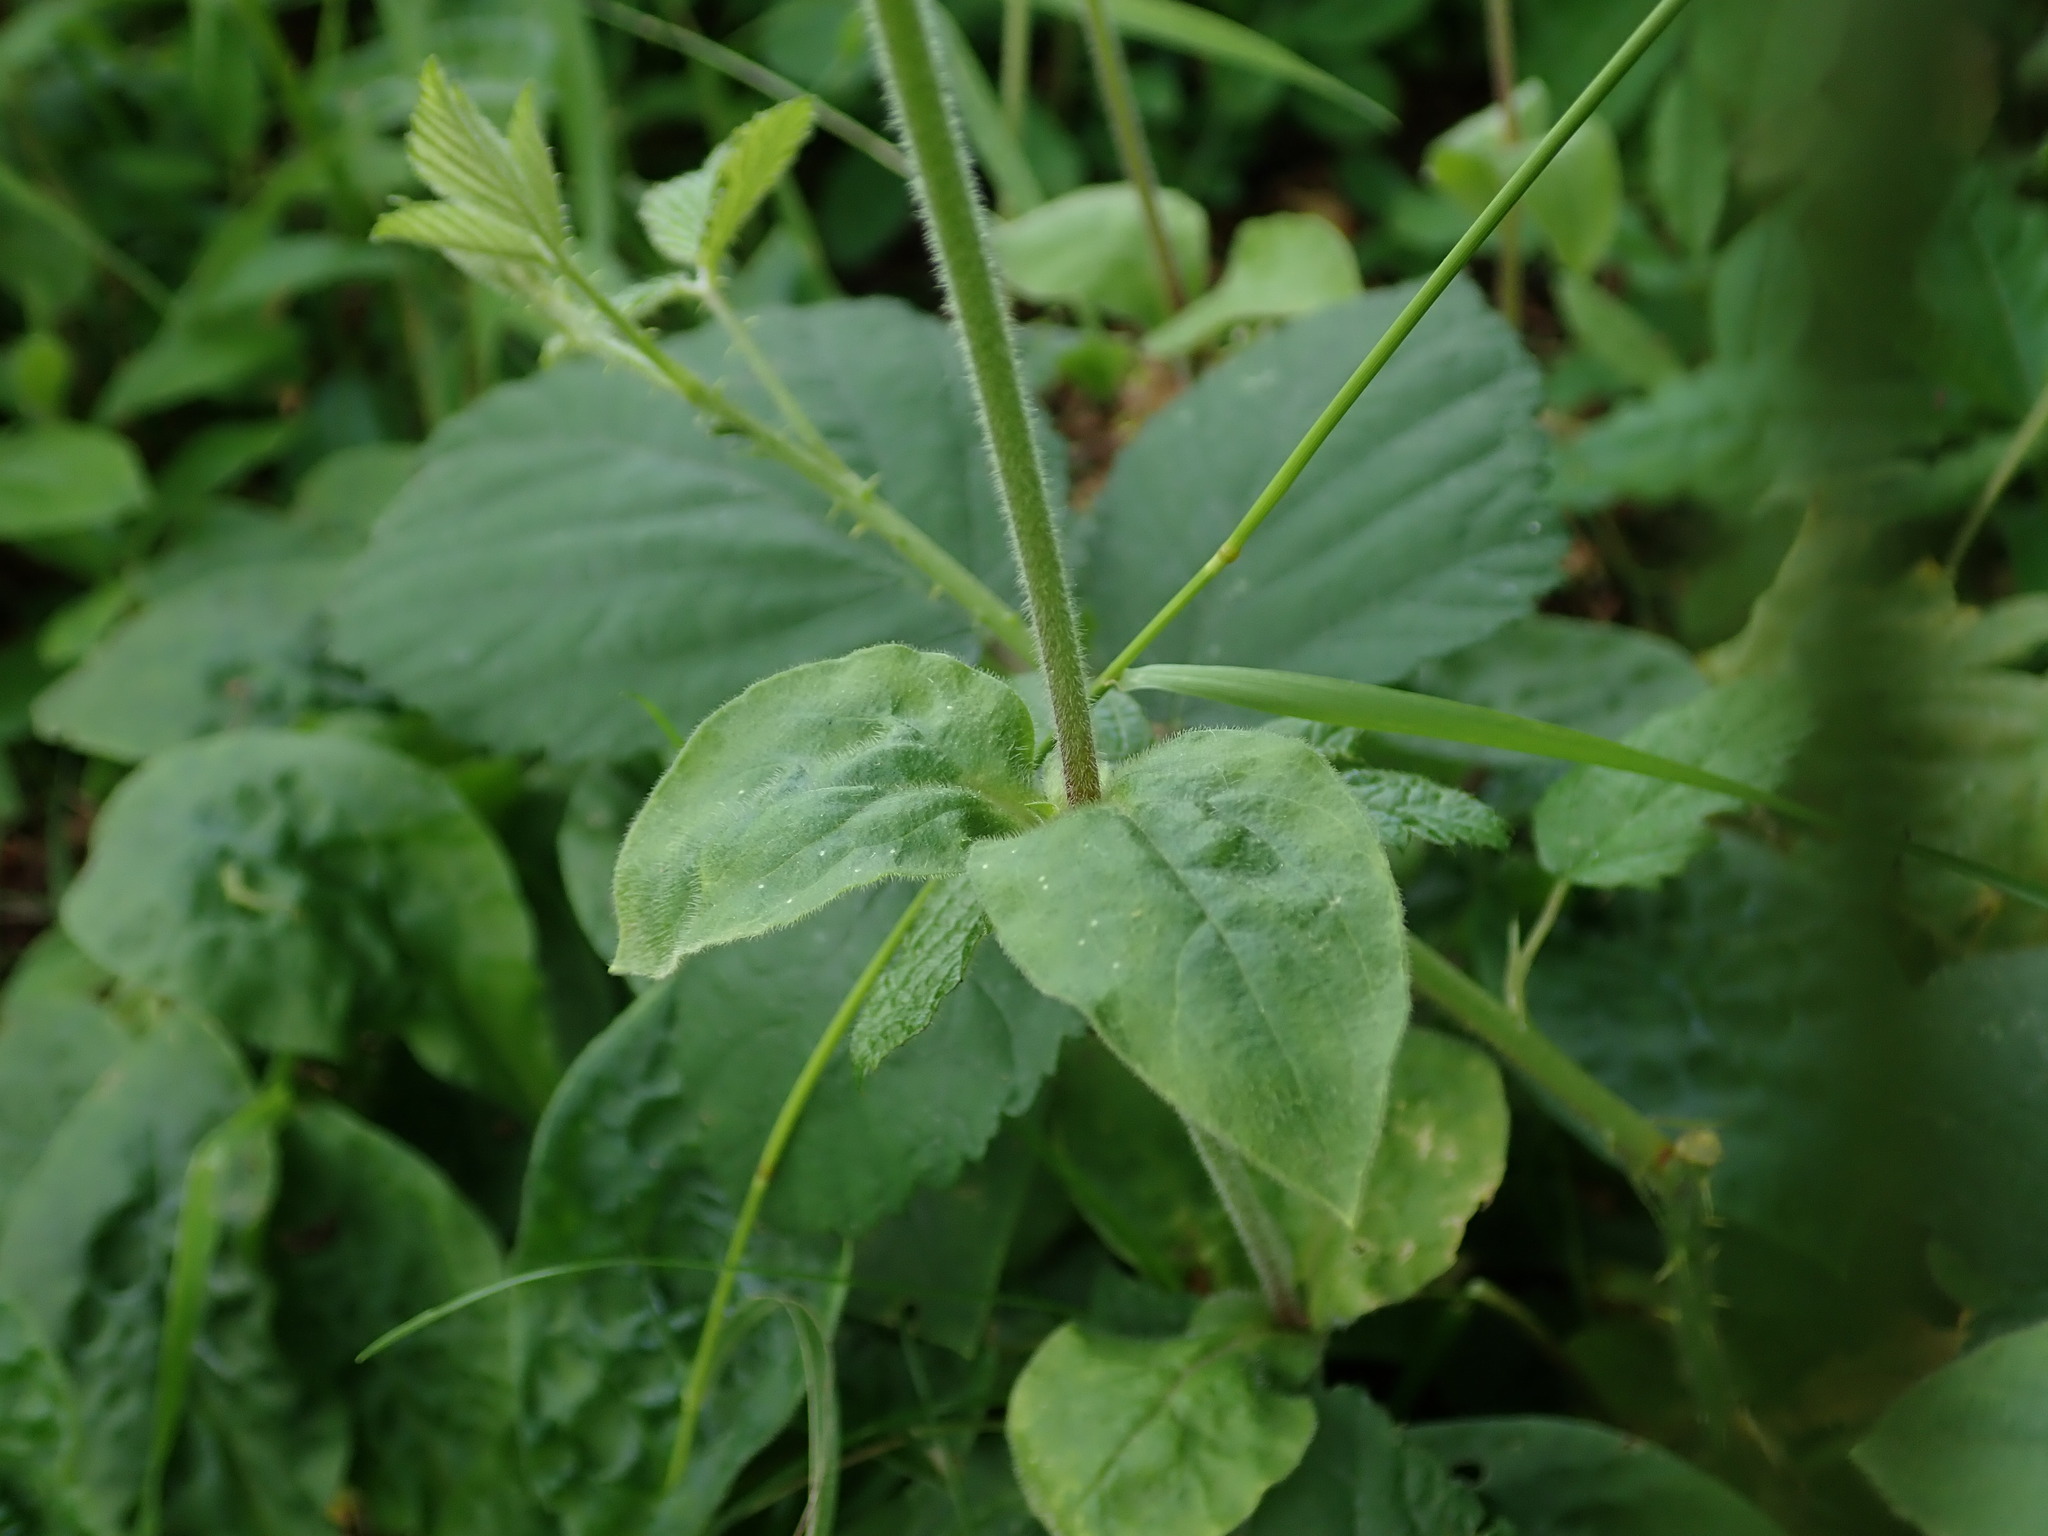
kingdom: Plantae
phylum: Tracheophyta
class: Magnoliopsida
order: Caryophyllales
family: Caryophyllaceae
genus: Silene
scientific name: Silene dioica
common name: Red campion
